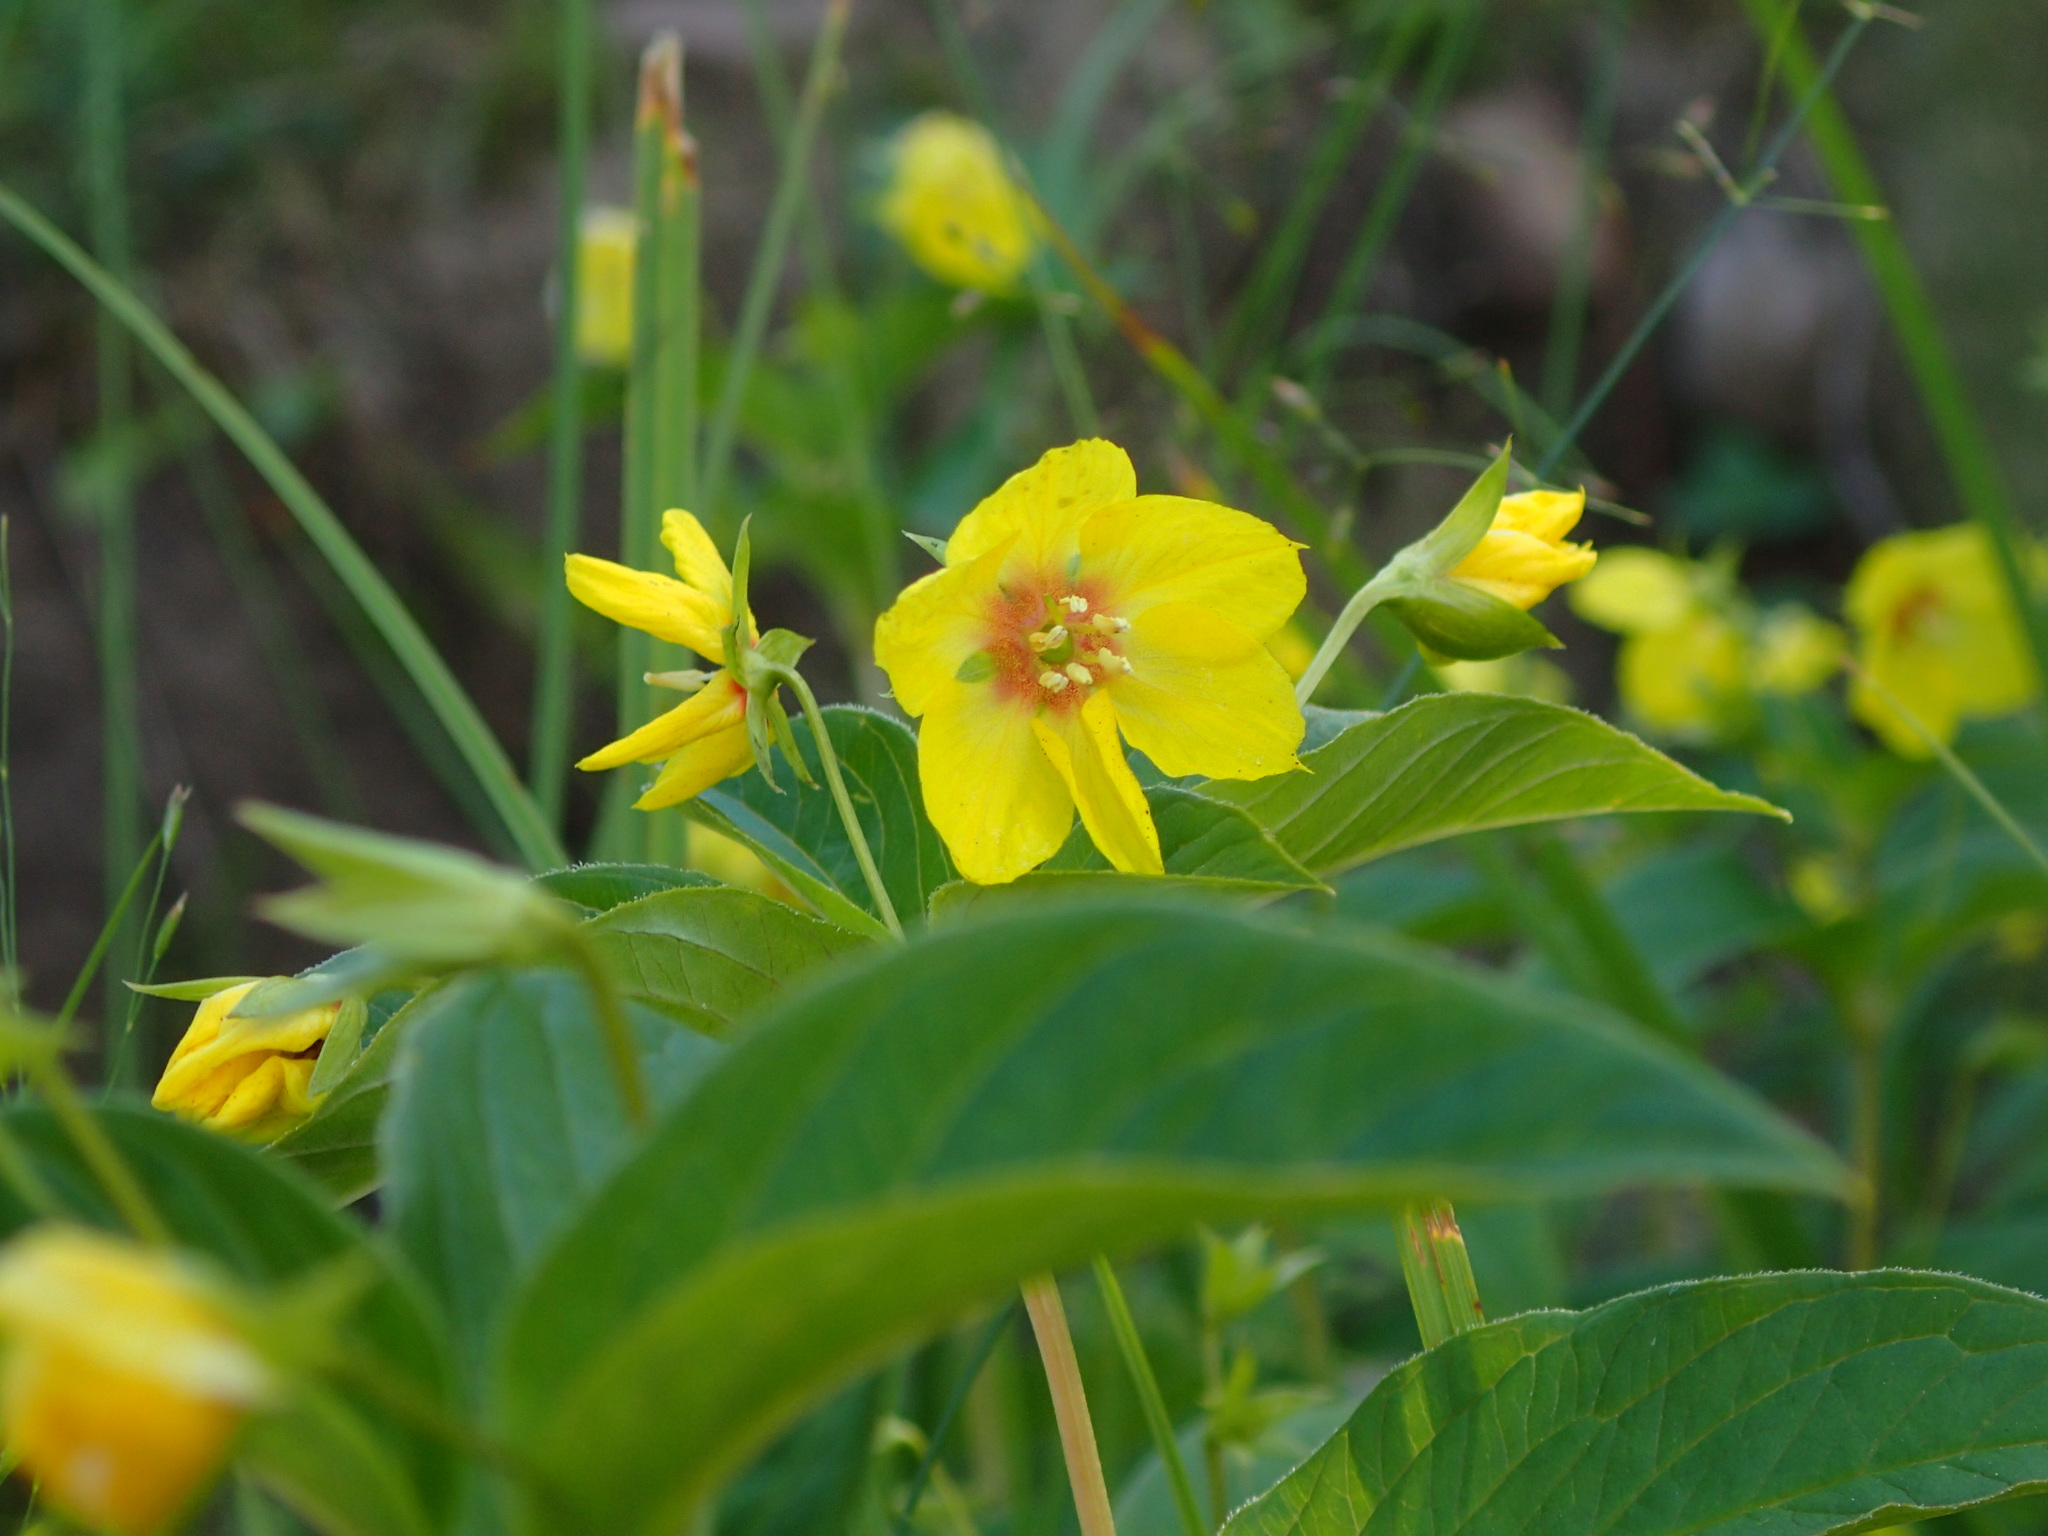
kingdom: Plantae
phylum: Tracheophyta
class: Magnoliopsida
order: Ericales
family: Primulaceae
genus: Lysimachia
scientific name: Lysimachia ciliata
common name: Fringed loosestrife
